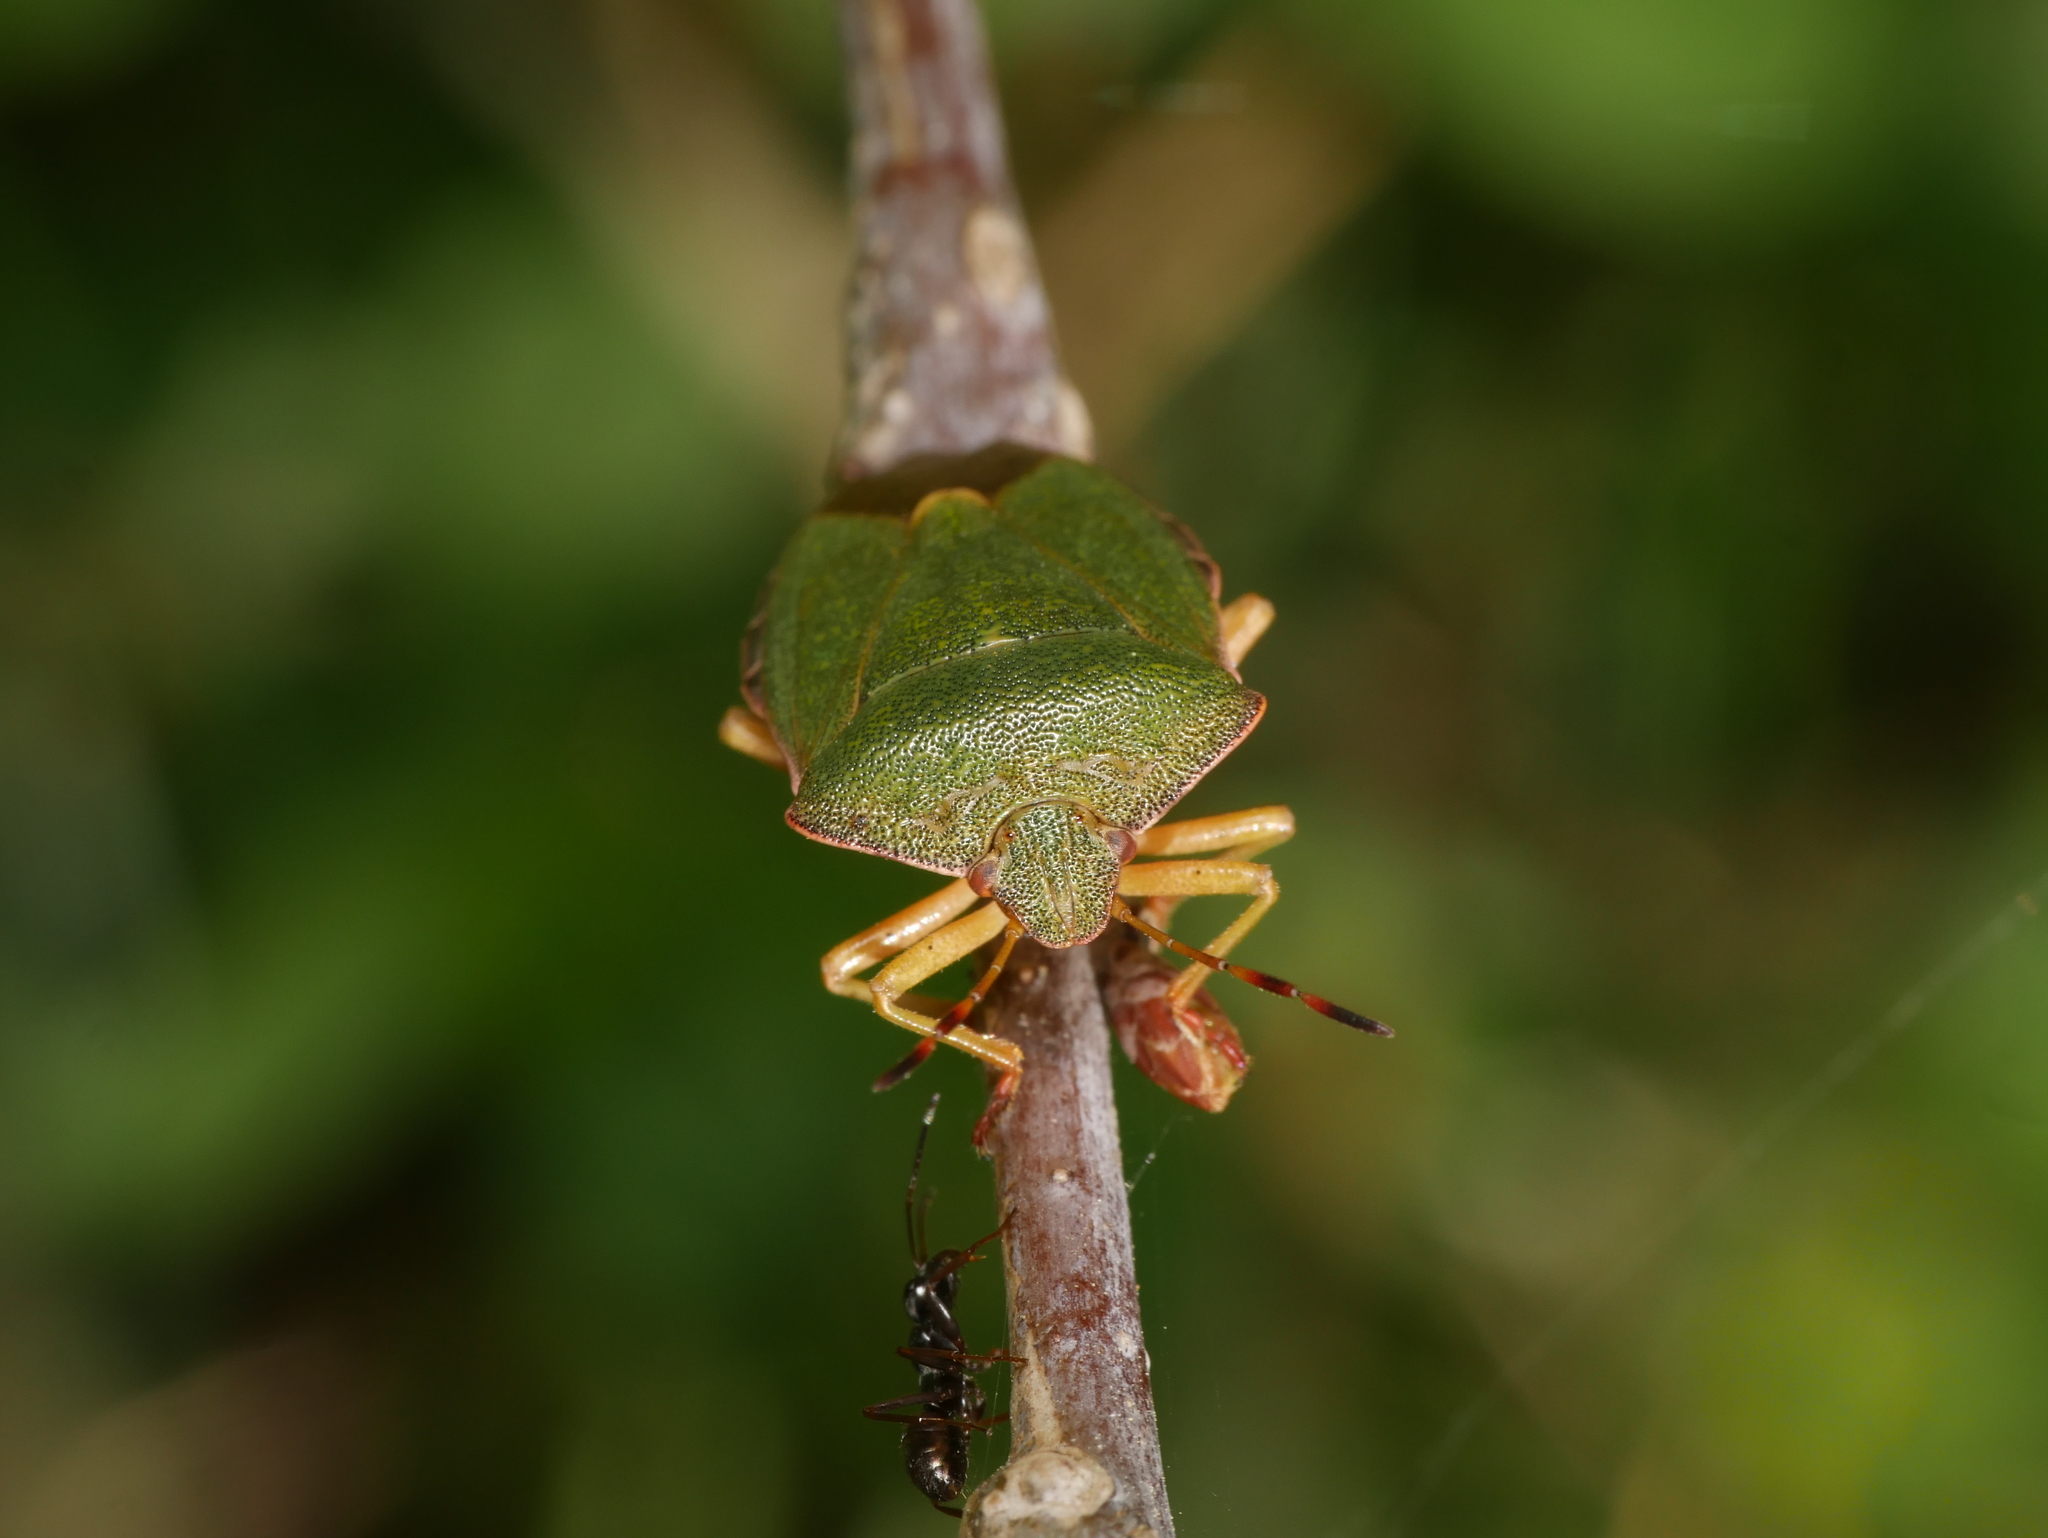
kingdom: Animalia
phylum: Arthropoda
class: Insecta
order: Hemiptera
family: Pentatomidae
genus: Palomena
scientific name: Palomena prasina
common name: Green shieldbug
